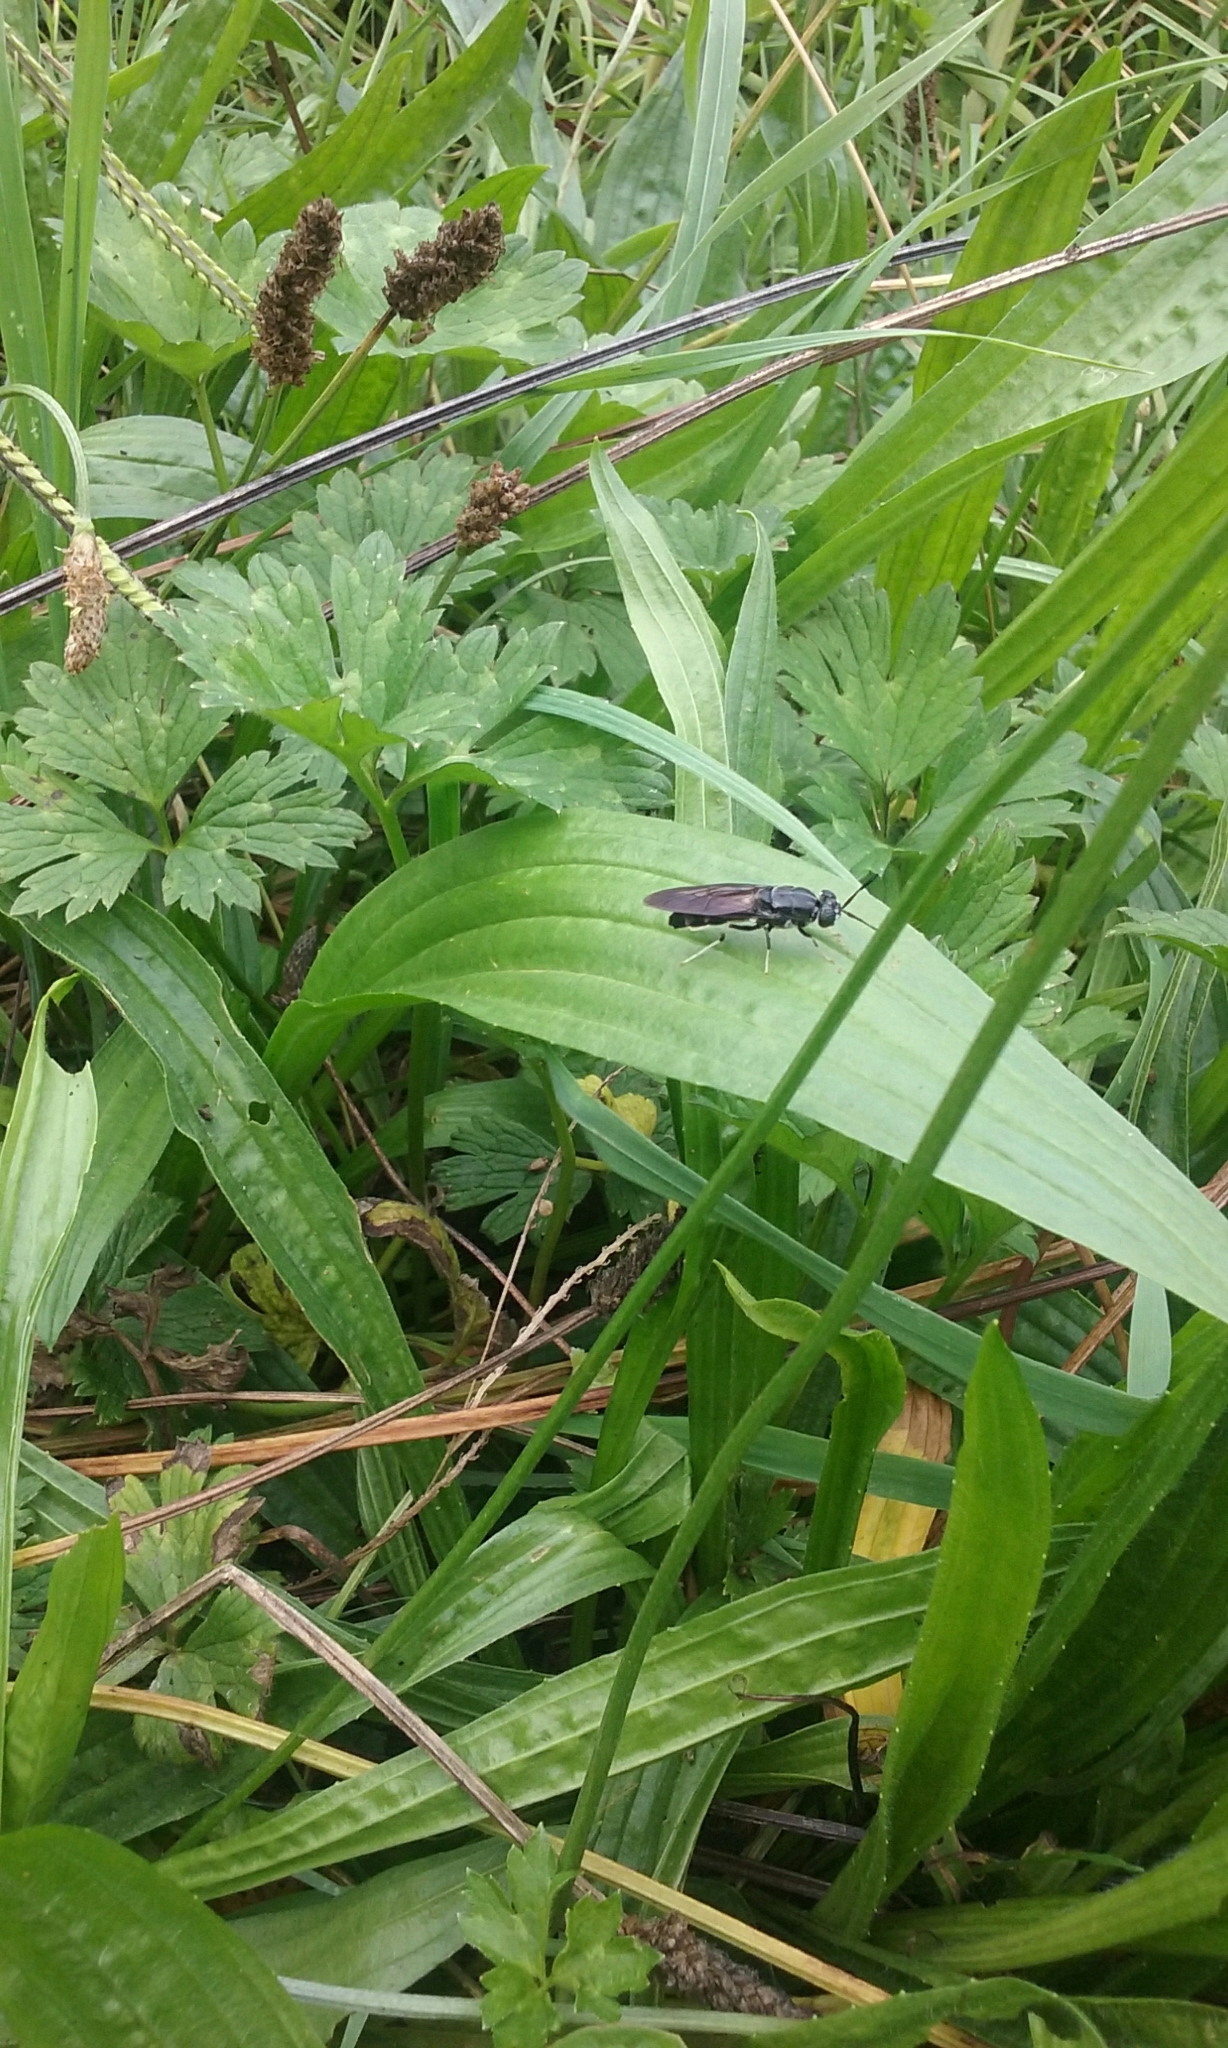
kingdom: Animalia
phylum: Arthropoda
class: Insecta
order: Diptera
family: Stratiomyidae
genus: Hermetia
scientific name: Hermetia illucens
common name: Black soldier fly
